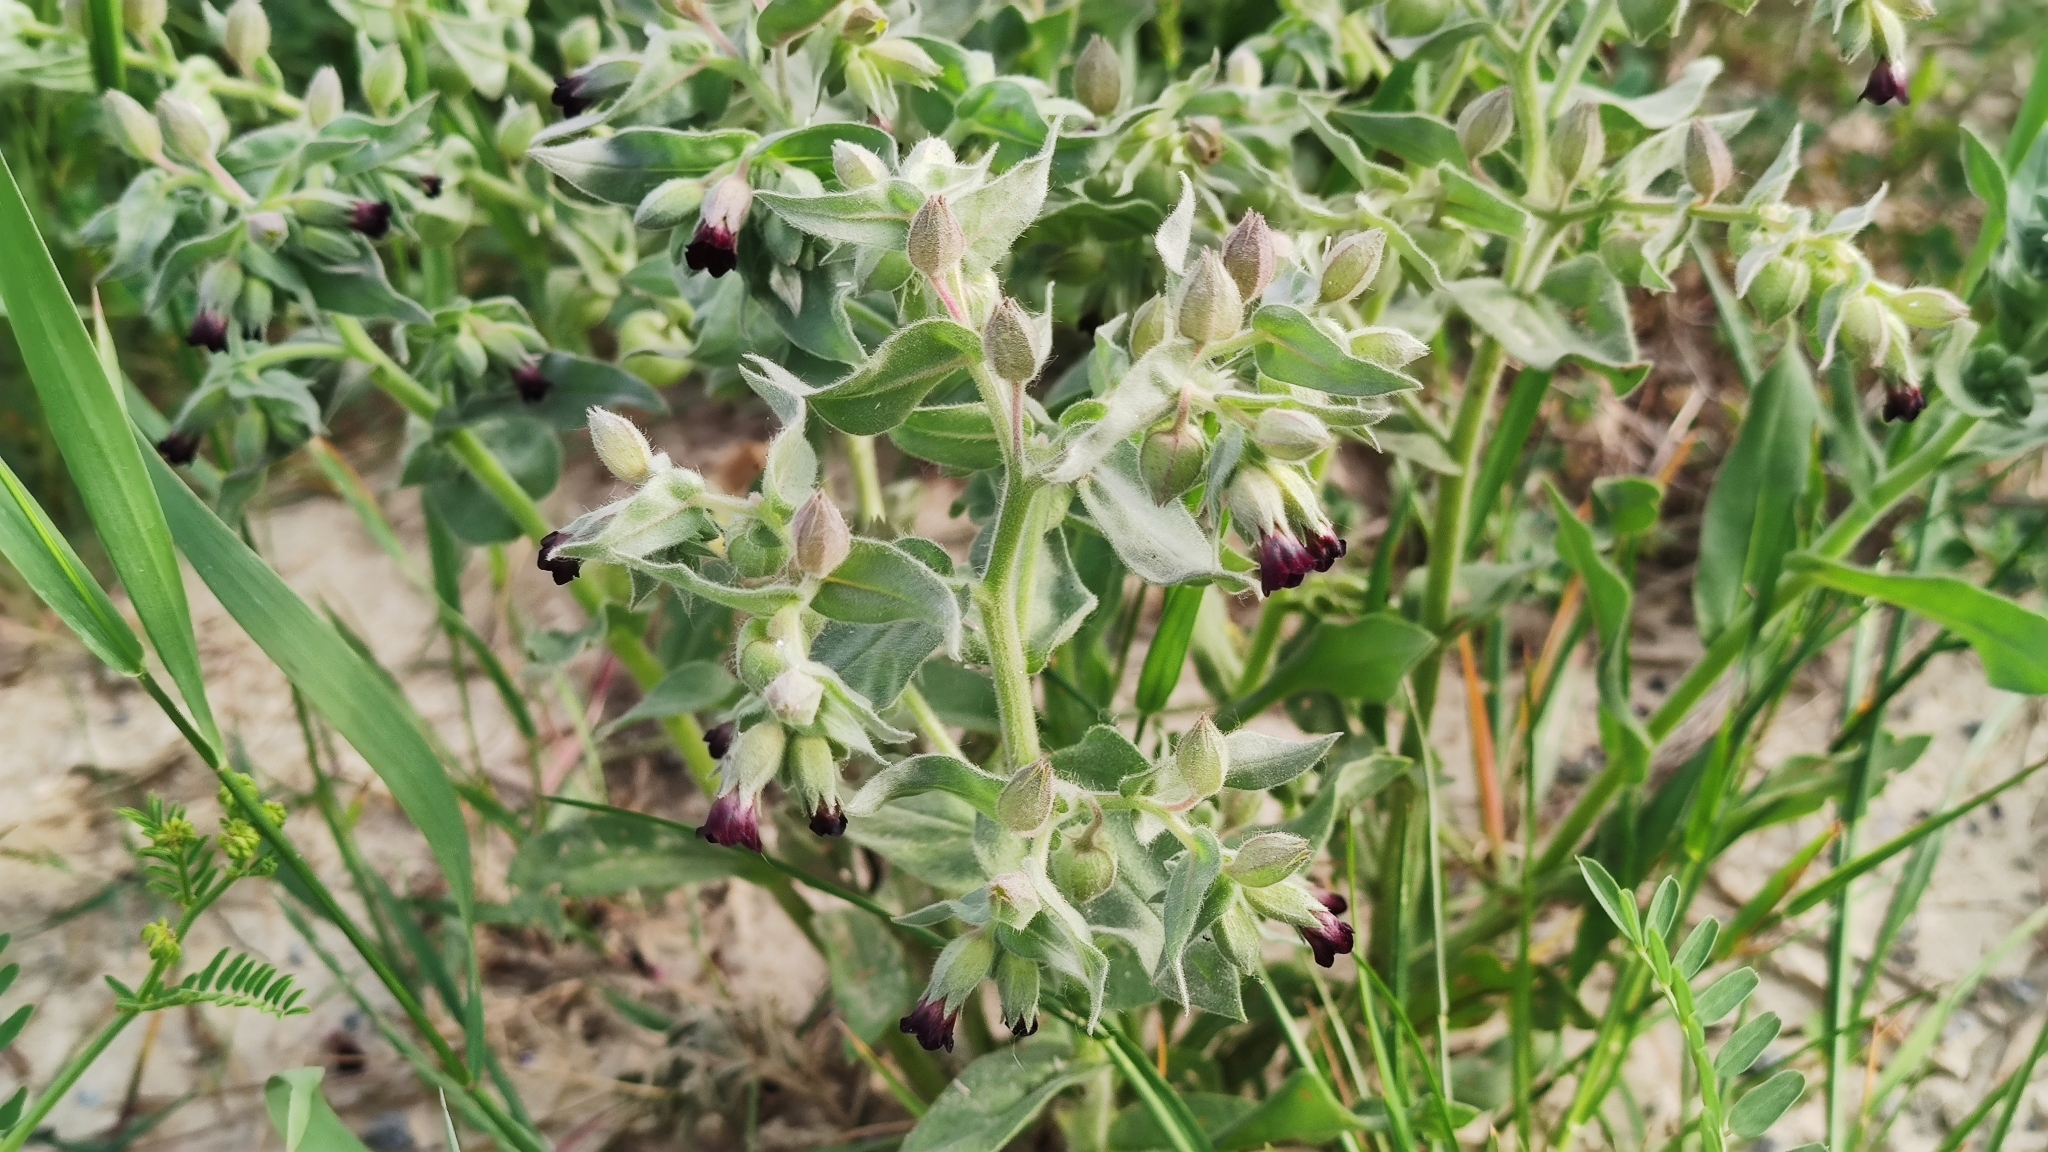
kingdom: Plantae
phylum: Tracheophyta
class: Magnoliopsida
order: Boraginales
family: Boraginaceae
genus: Nonea
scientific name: Nonea pulla
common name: Brown nonea
